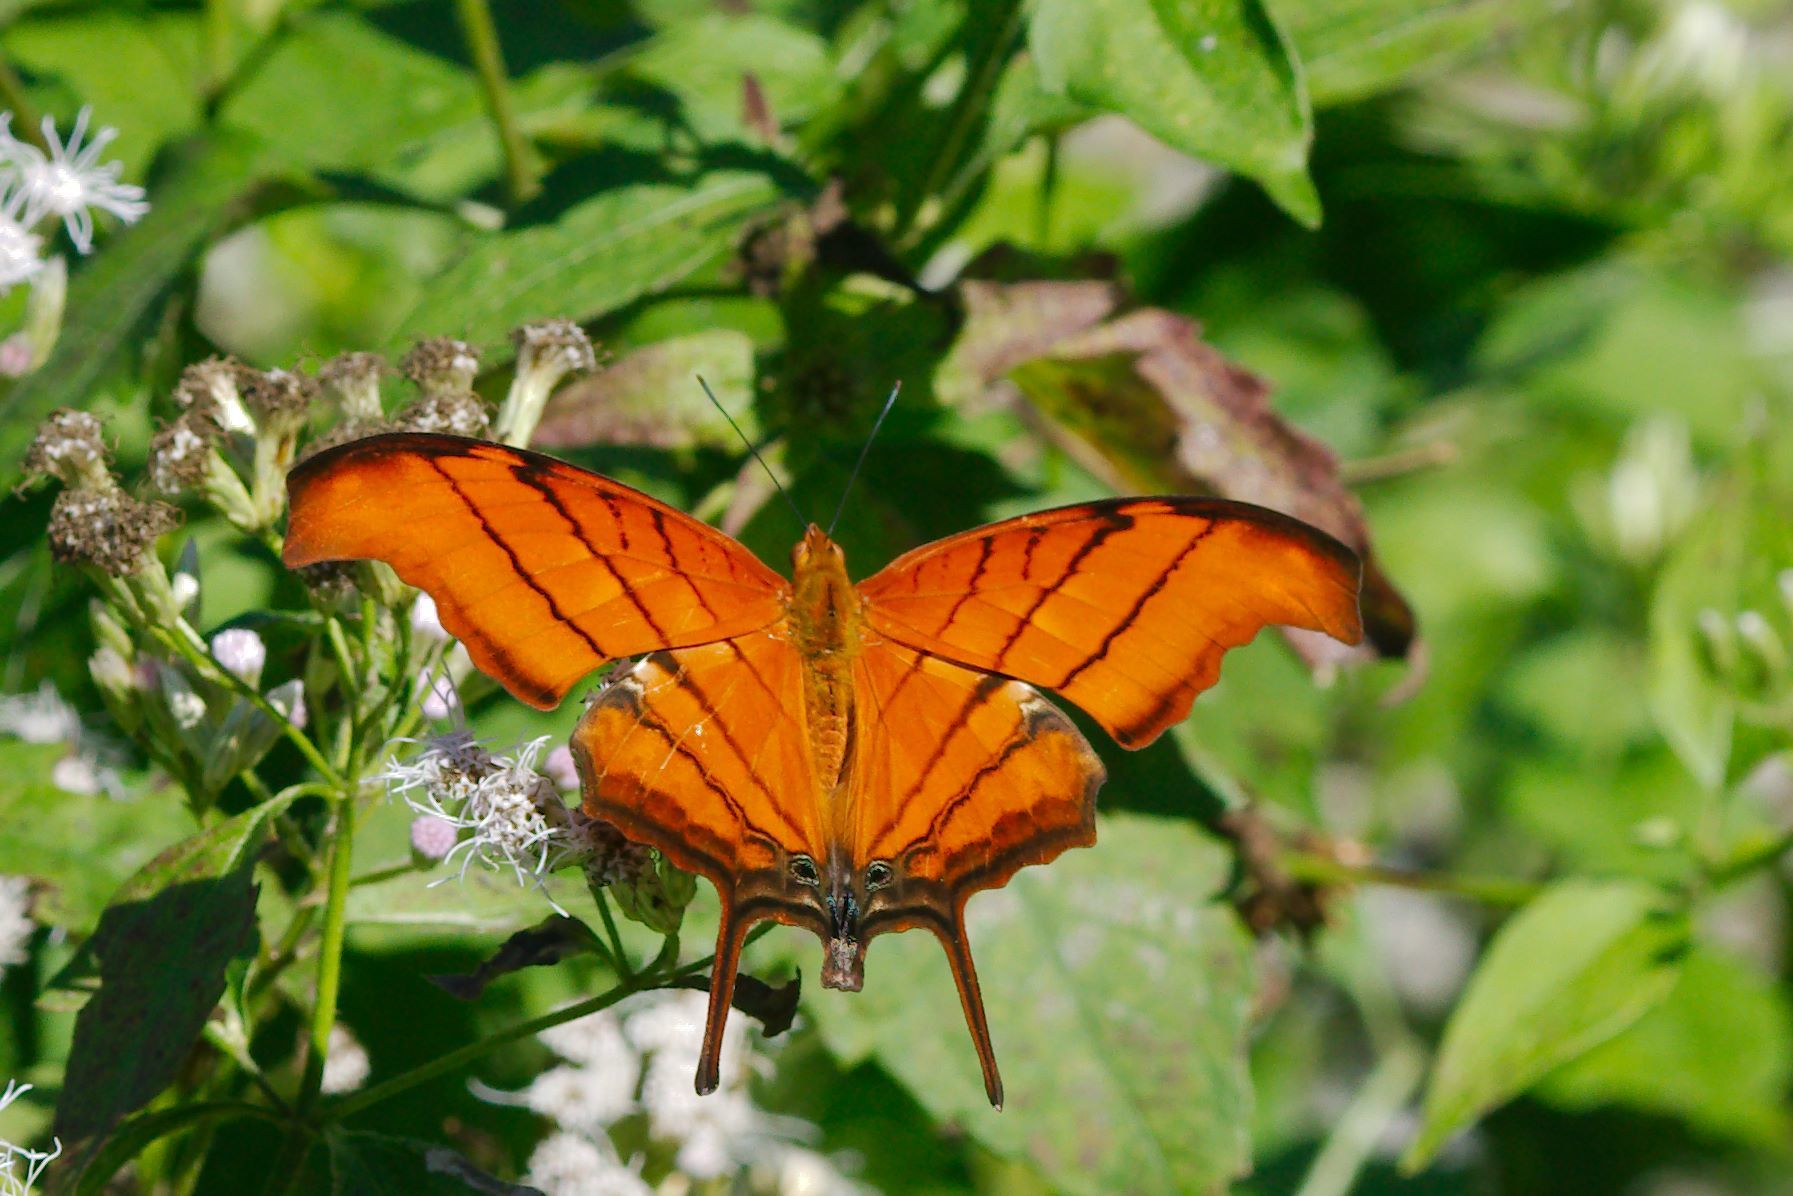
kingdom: Animalia
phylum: Arthropoda
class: Insecta
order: Lepidoptera
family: Nymphalidae
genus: Marpesia
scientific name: Marpesia petreus
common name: Red dagger wing
